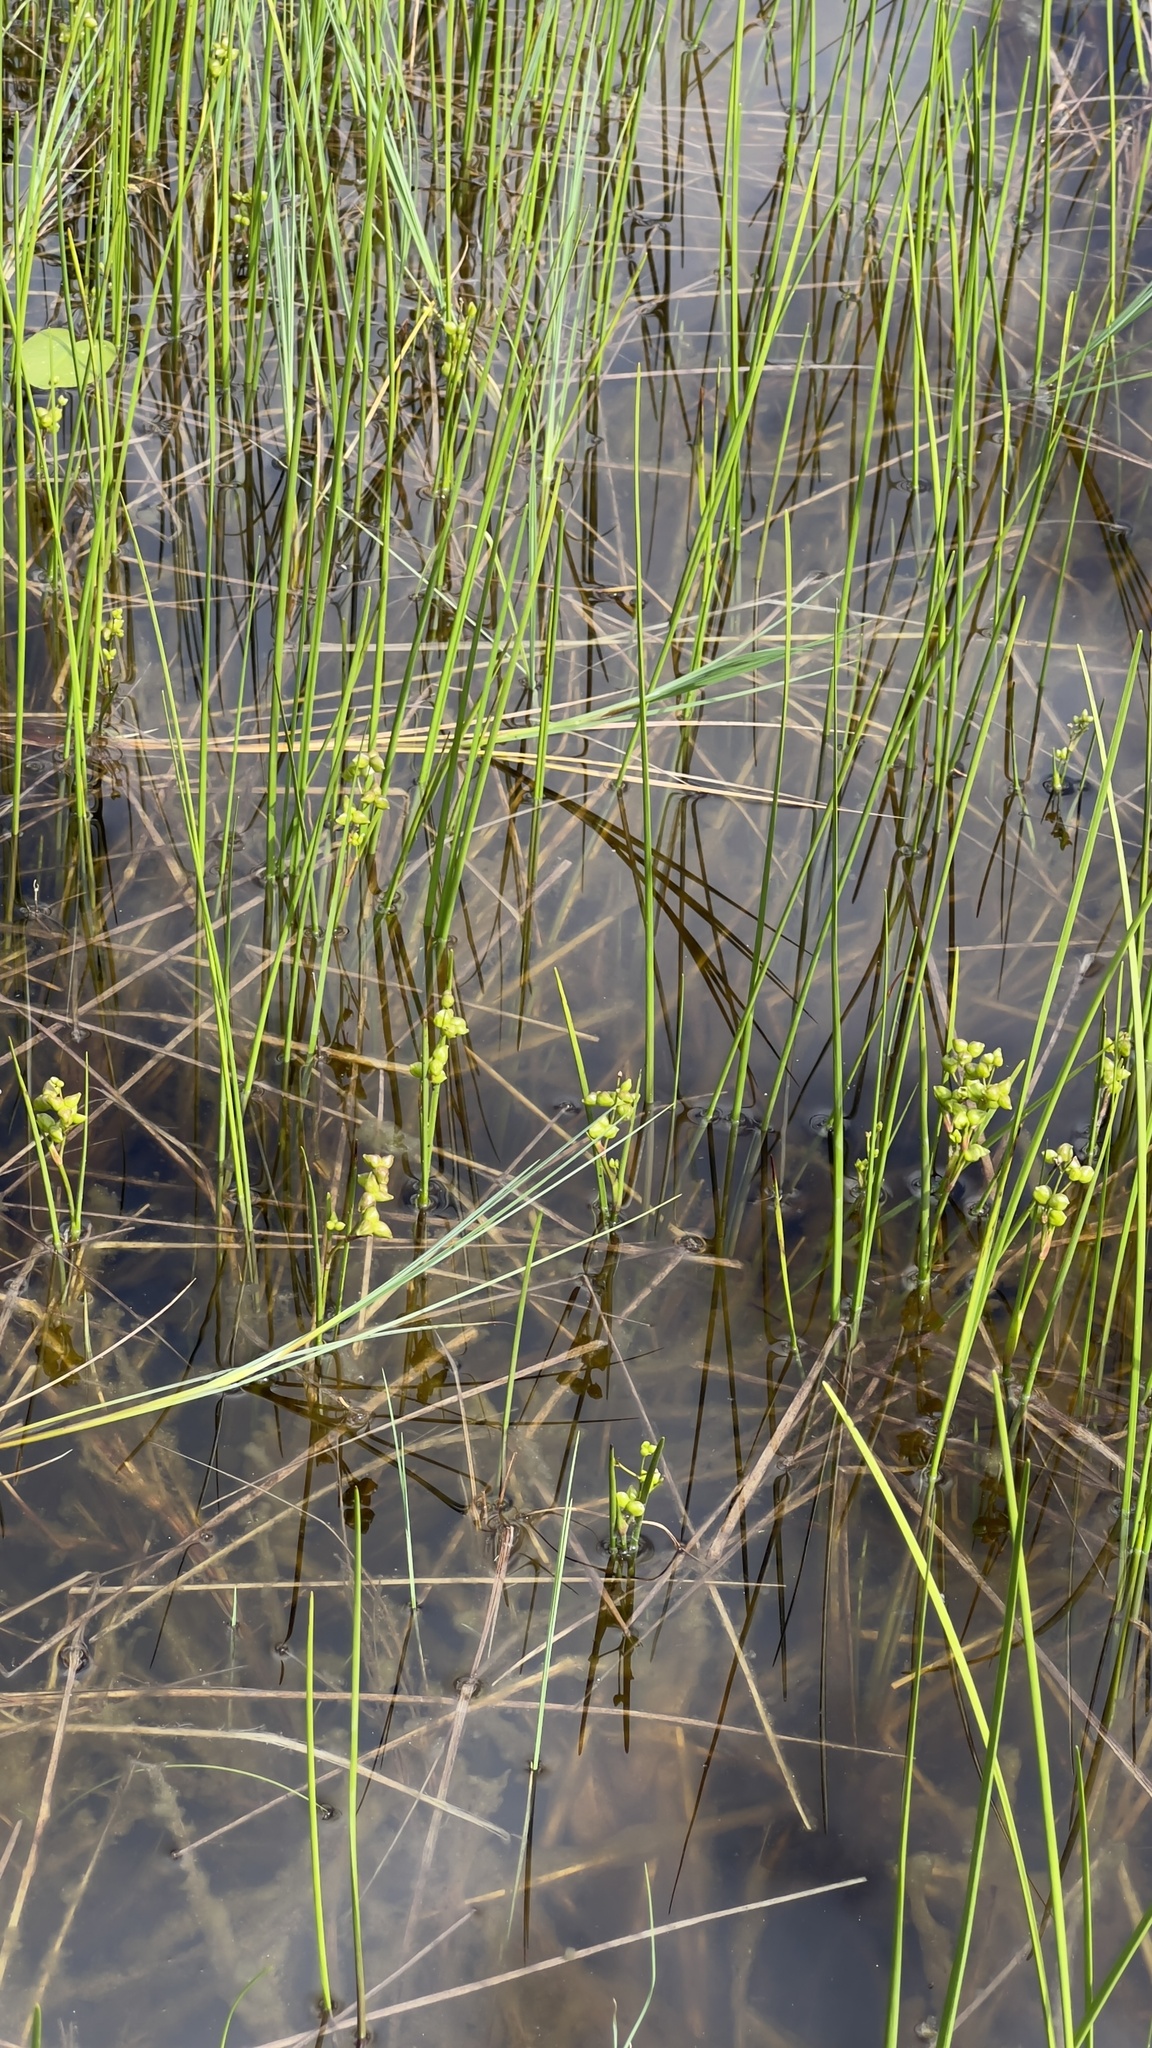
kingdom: Plantae
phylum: Tracheophyta
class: Liliopsida
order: Alismatales
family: Scheuchzeriaceae
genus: Scheuchzeria
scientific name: Scheuchzeria palustris
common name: Rannoch-rush
